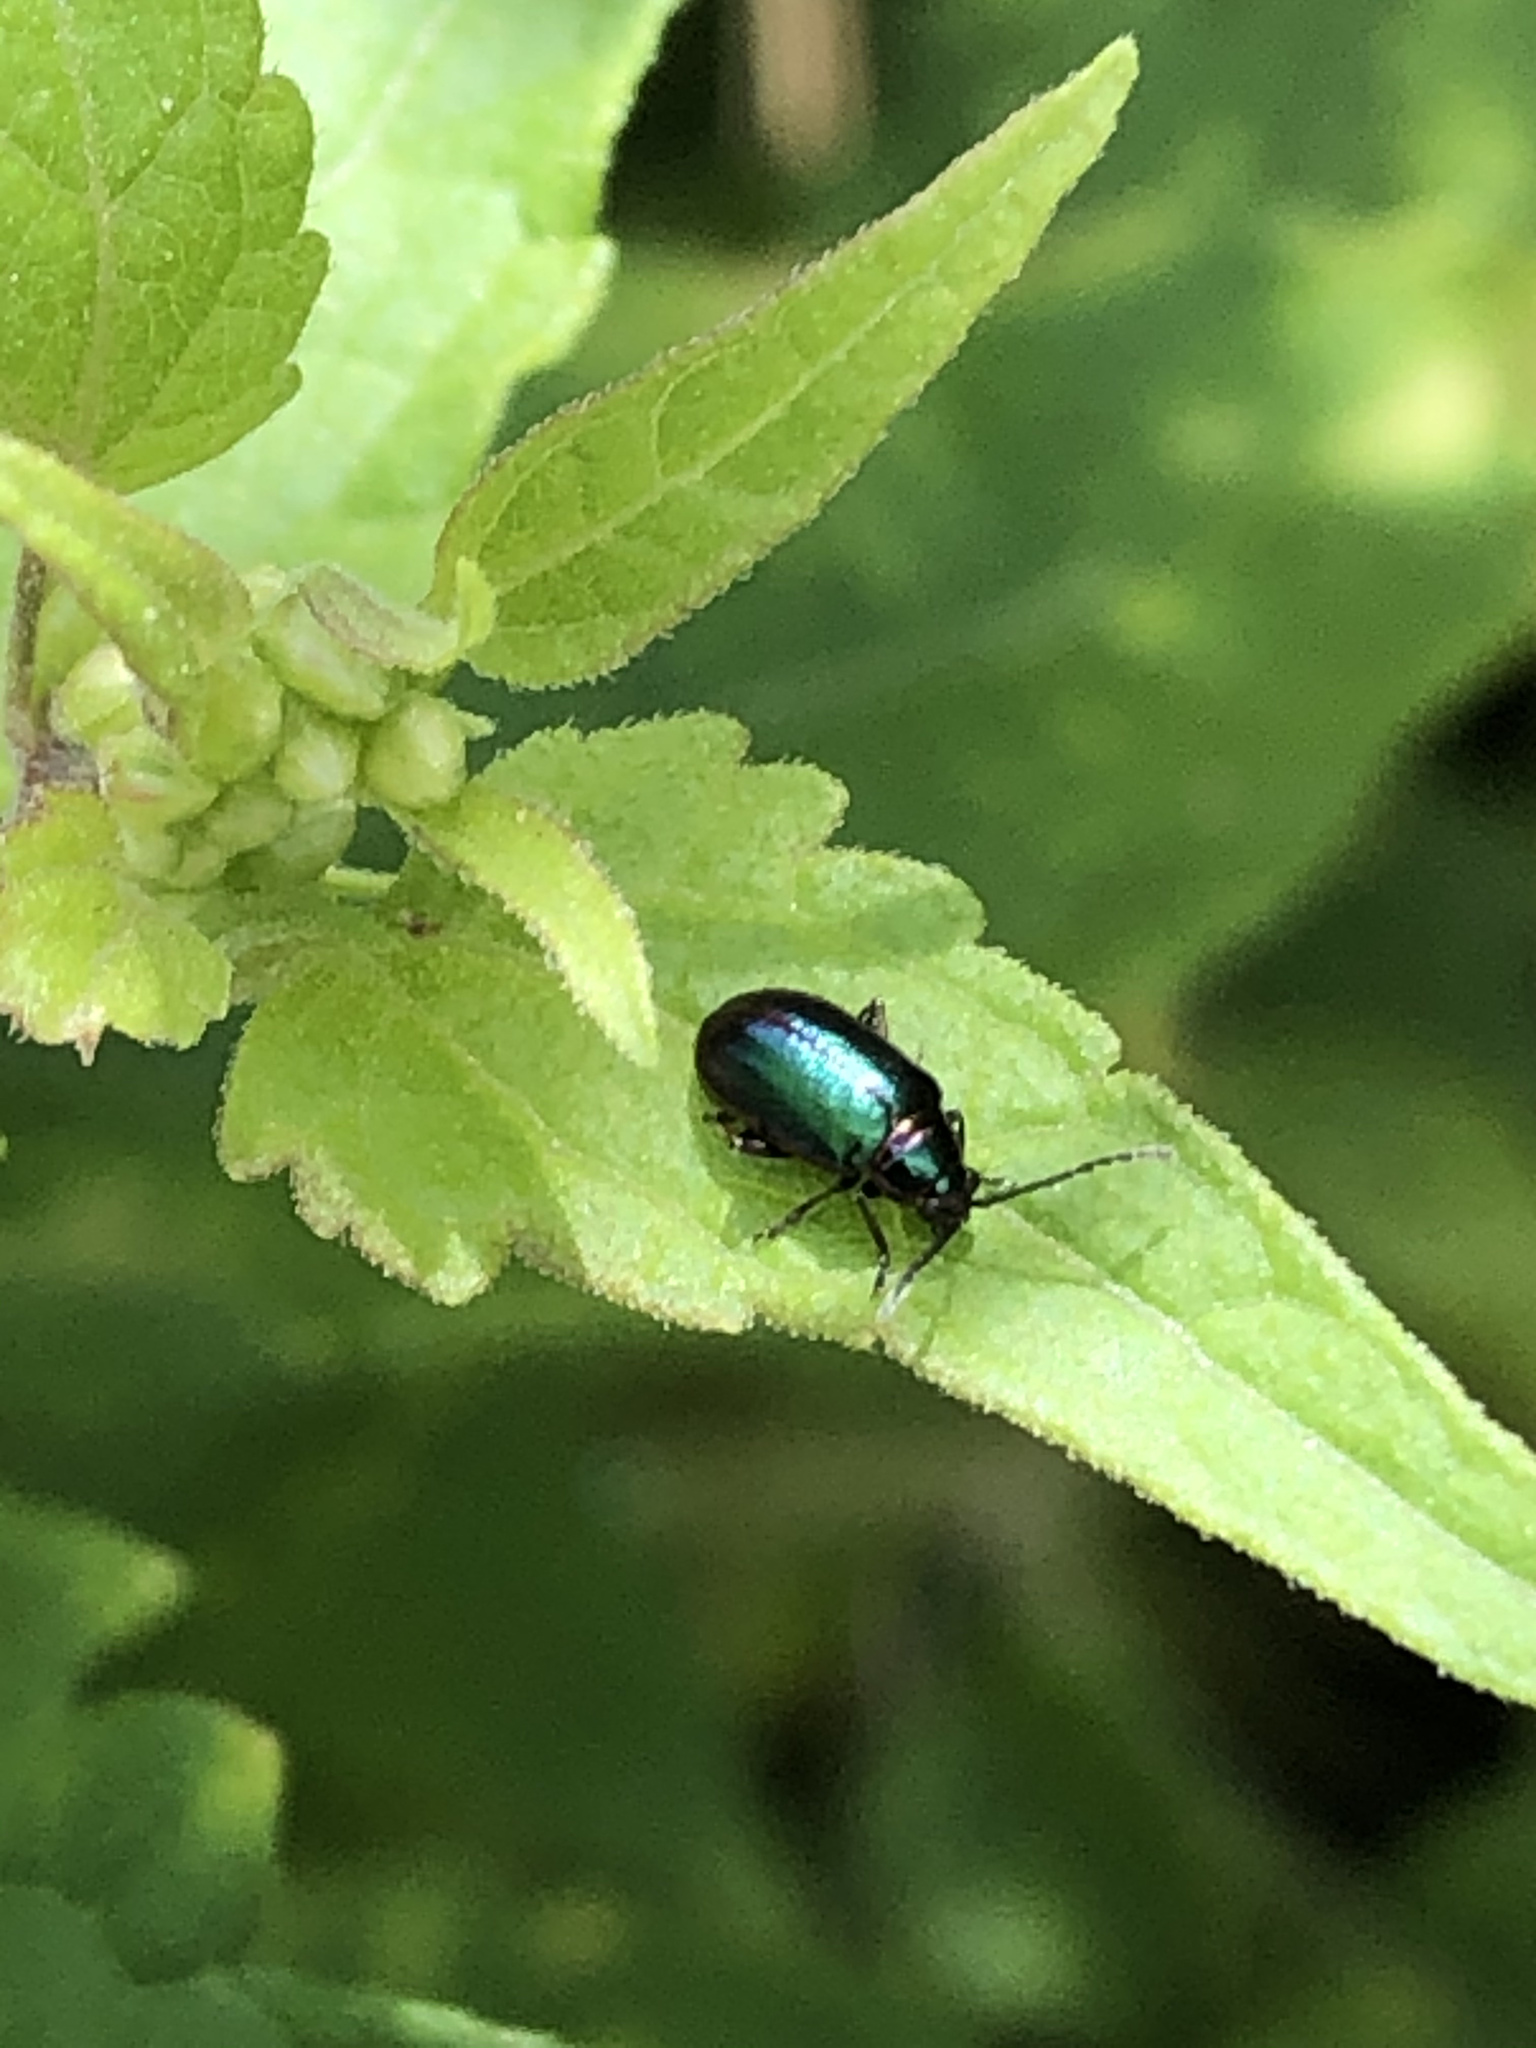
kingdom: Animalia
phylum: Arthropoda
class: Insecta
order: Coleoptera
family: Chrysomelidae
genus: Altica
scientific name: Altica torquata
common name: Leaf beetle
